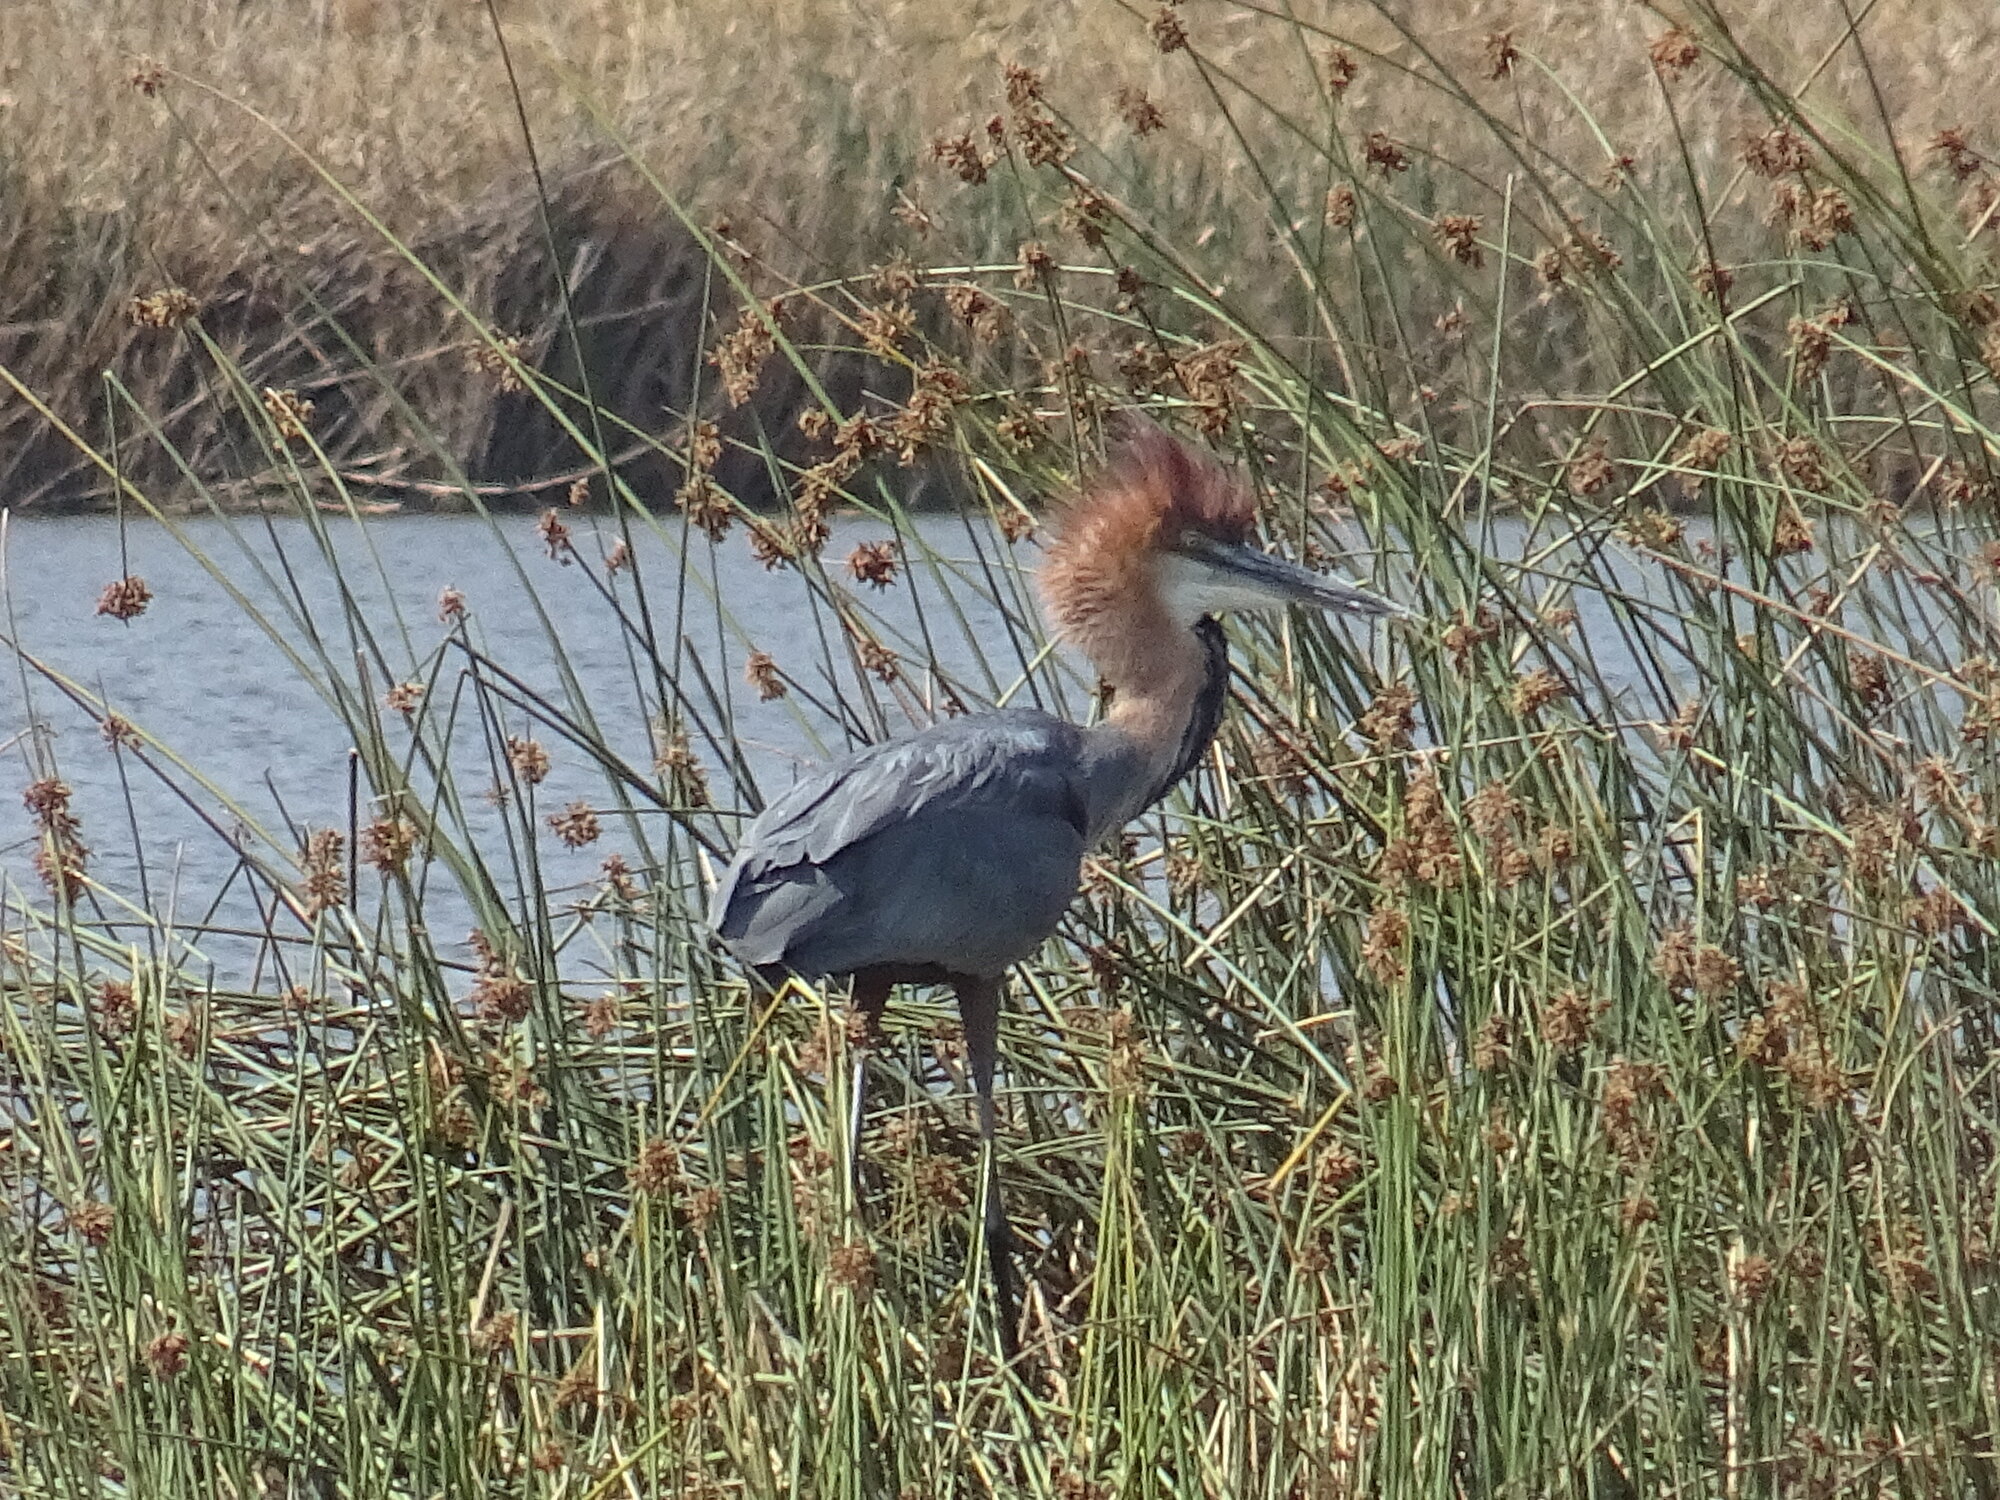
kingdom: Animalia
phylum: Chordata
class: Aves
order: Pelecaniformes
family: Ardeidae
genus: Ardea
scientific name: Ardea goliath
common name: Goliath heron
